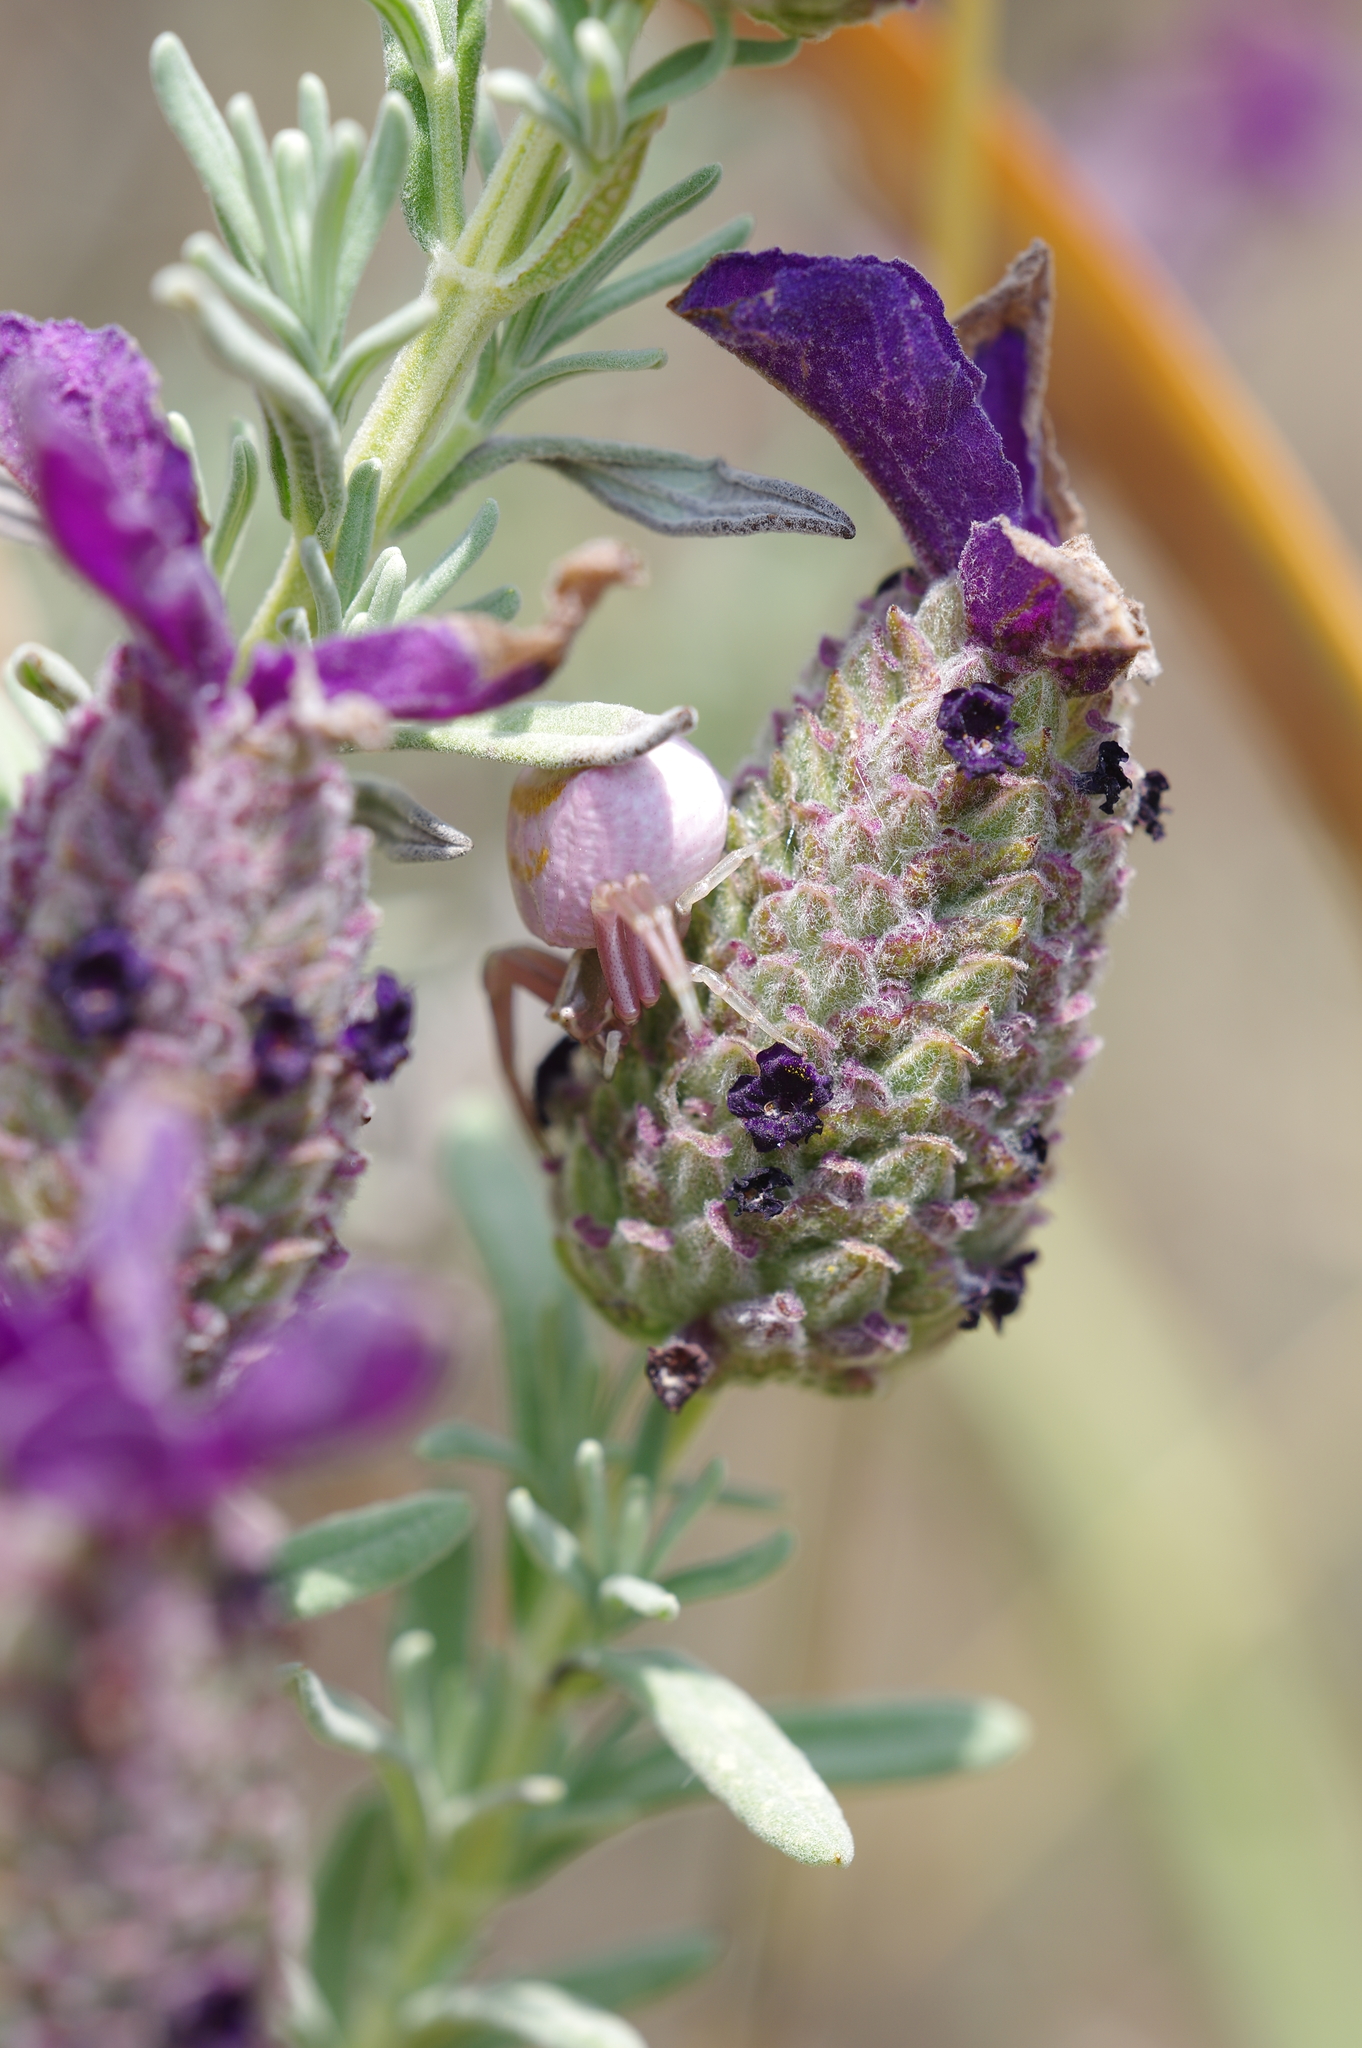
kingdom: Animalia
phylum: Arthropoda
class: Arachnida
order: Araneae
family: Thomisidae
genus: Thomisus
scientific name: Thomisus onustus
